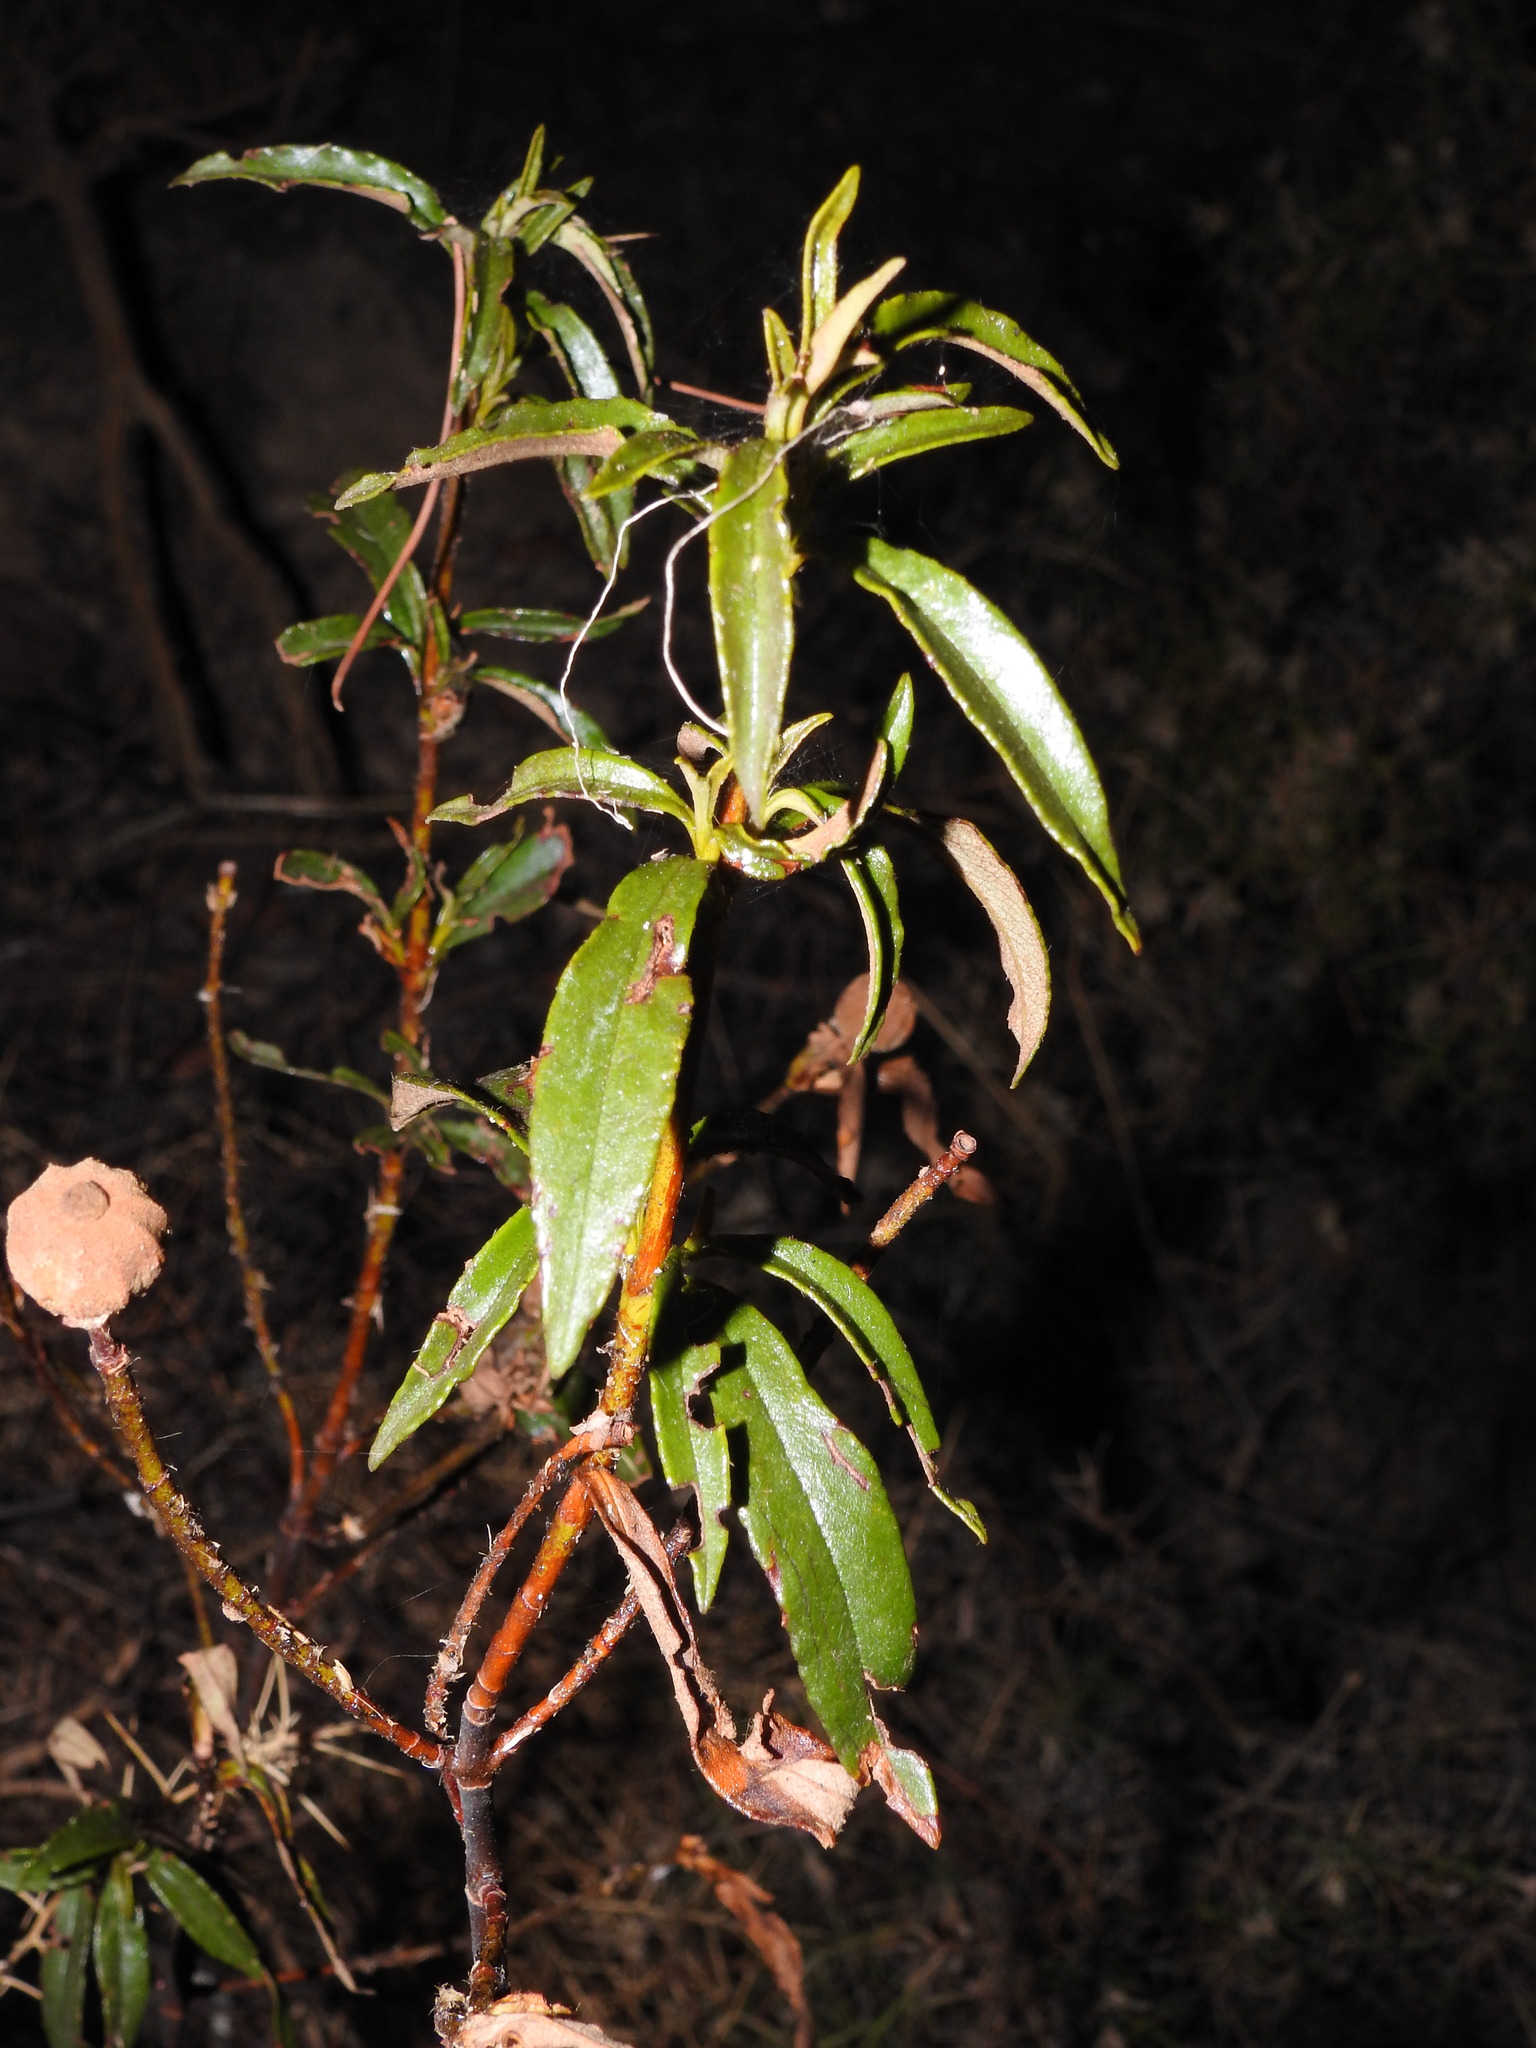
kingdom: Plantae
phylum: Tracheophyta
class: Magnoliopsida
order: Malvales
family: Cistaceae
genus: Cistus
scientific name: Cistus ladanifer
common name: Common gum cistus
